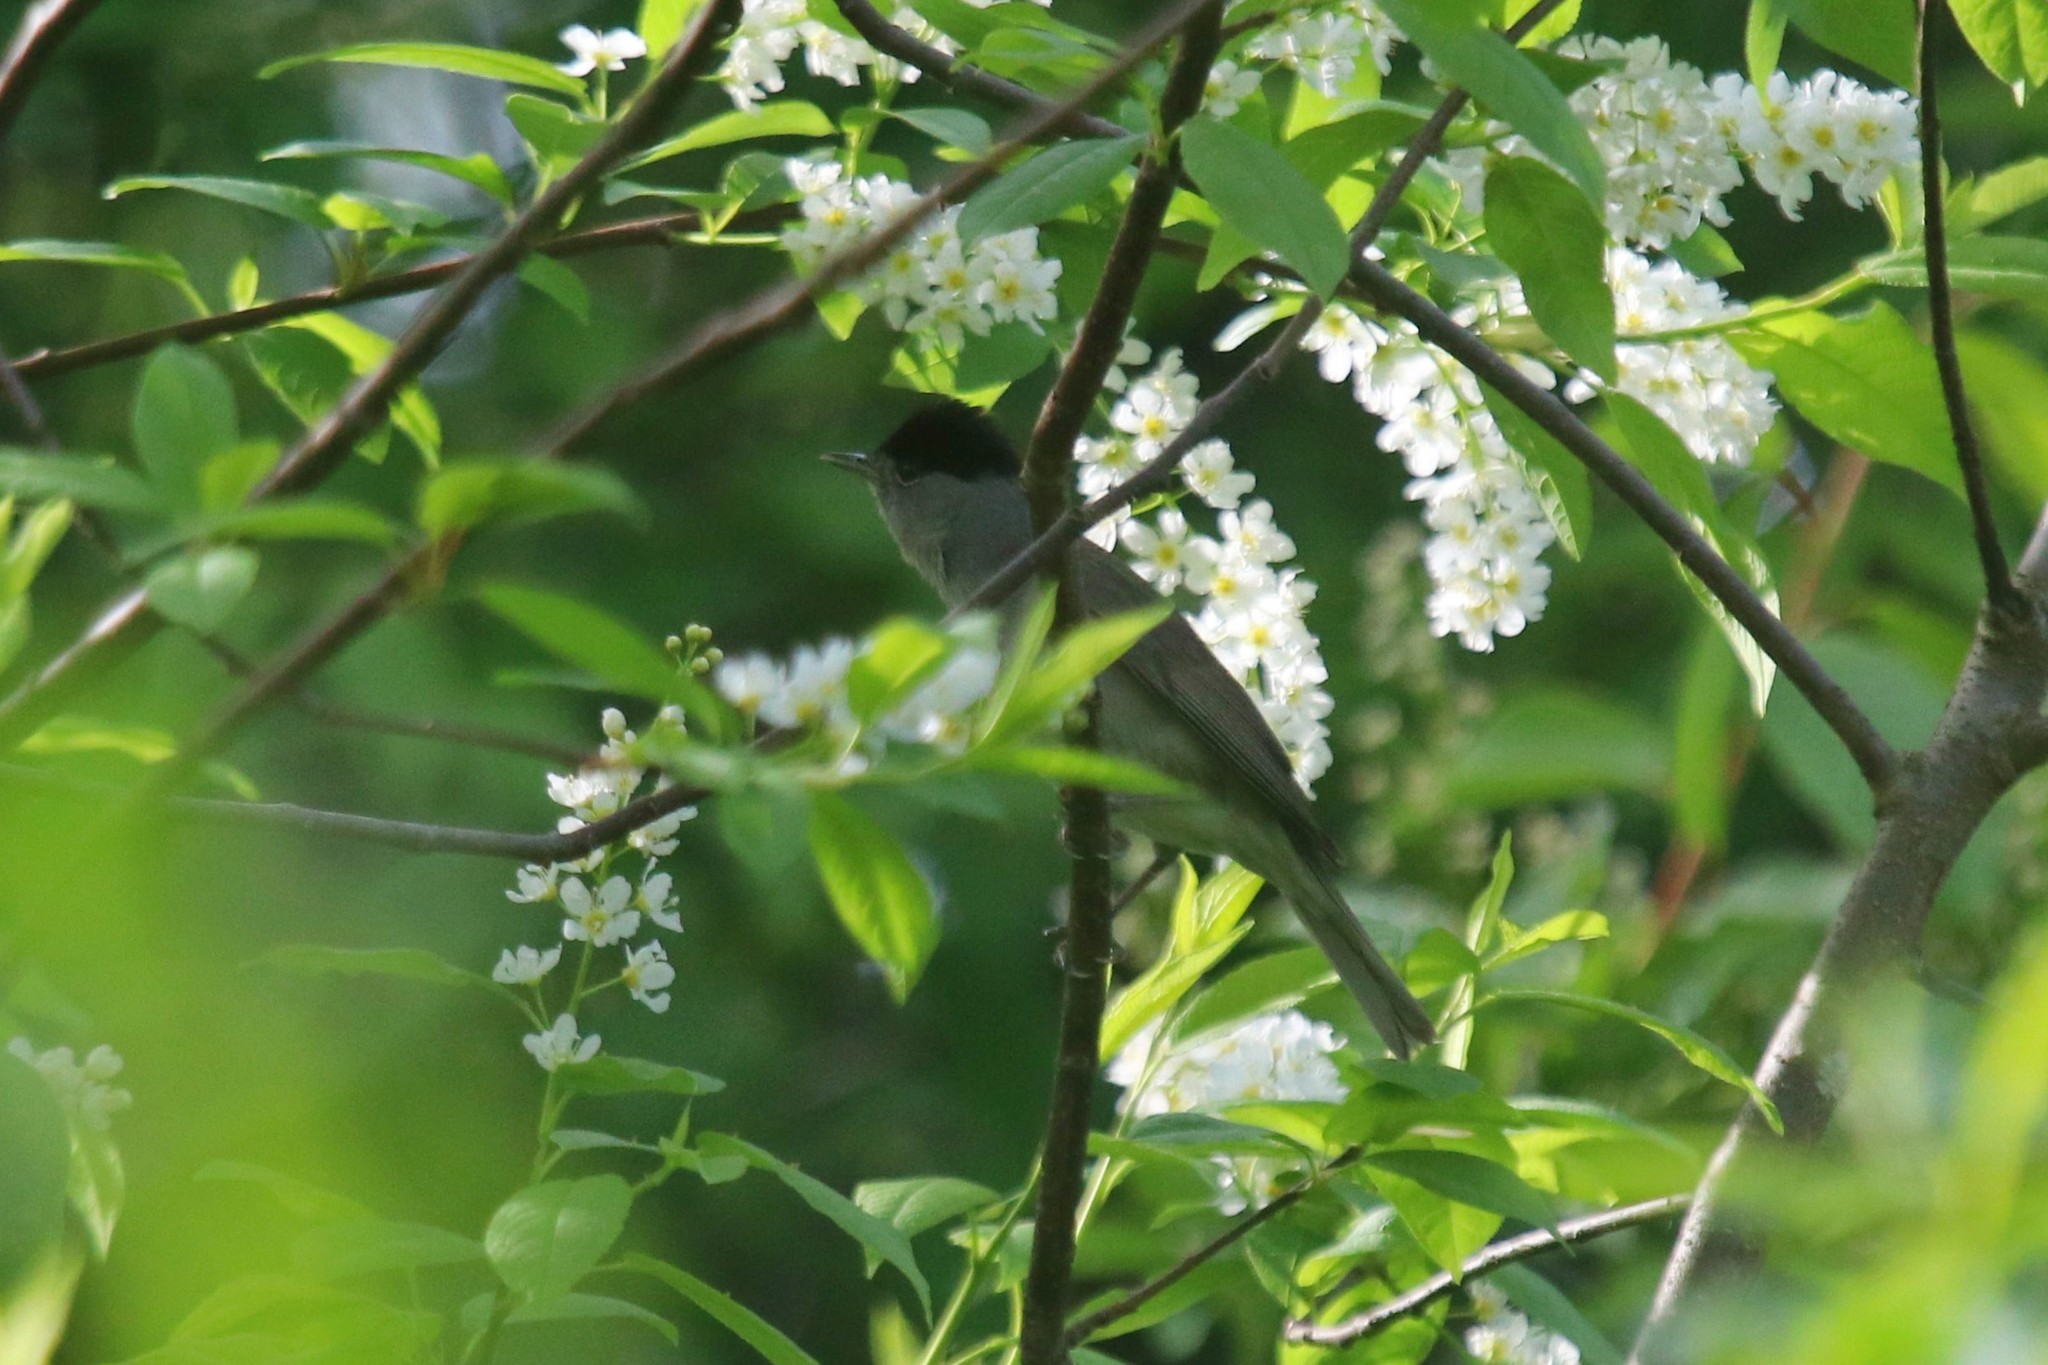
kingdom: Animalia
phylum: Chordata
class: Aves
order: Passeriformes
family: Sylviidae
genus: Sylvia
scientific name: Sylvia atricapilla
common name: Eurasian blackcap
